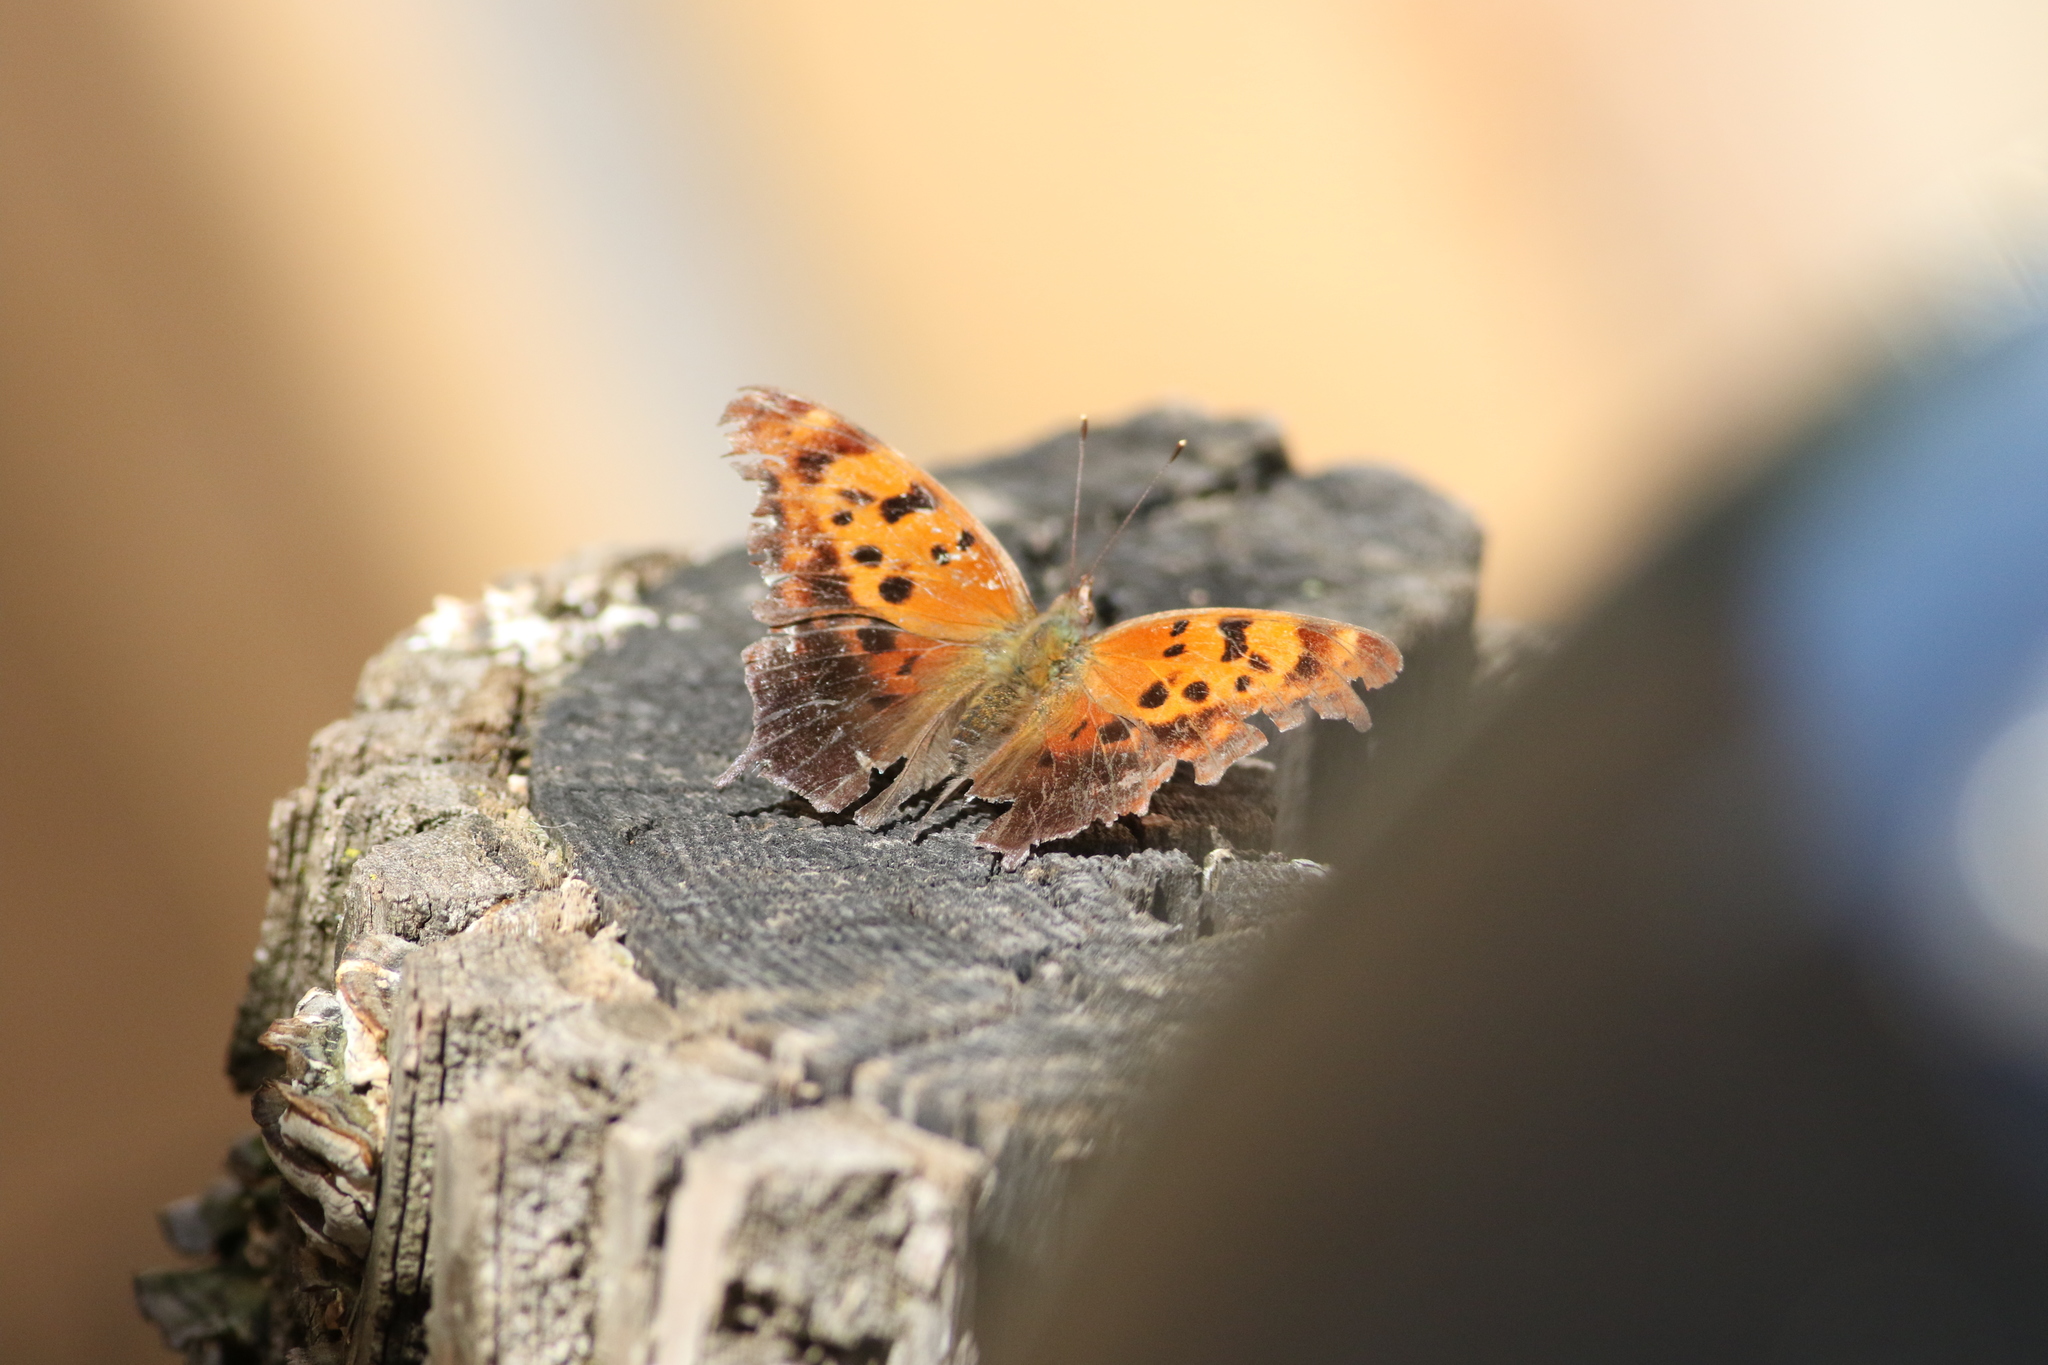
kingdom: Animalia
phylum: Arthropoda
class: Insecta
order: Lepidoptera
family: Nymphalidae
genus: Polygonia
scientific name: Polygonia interrogationis
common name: Question mark
